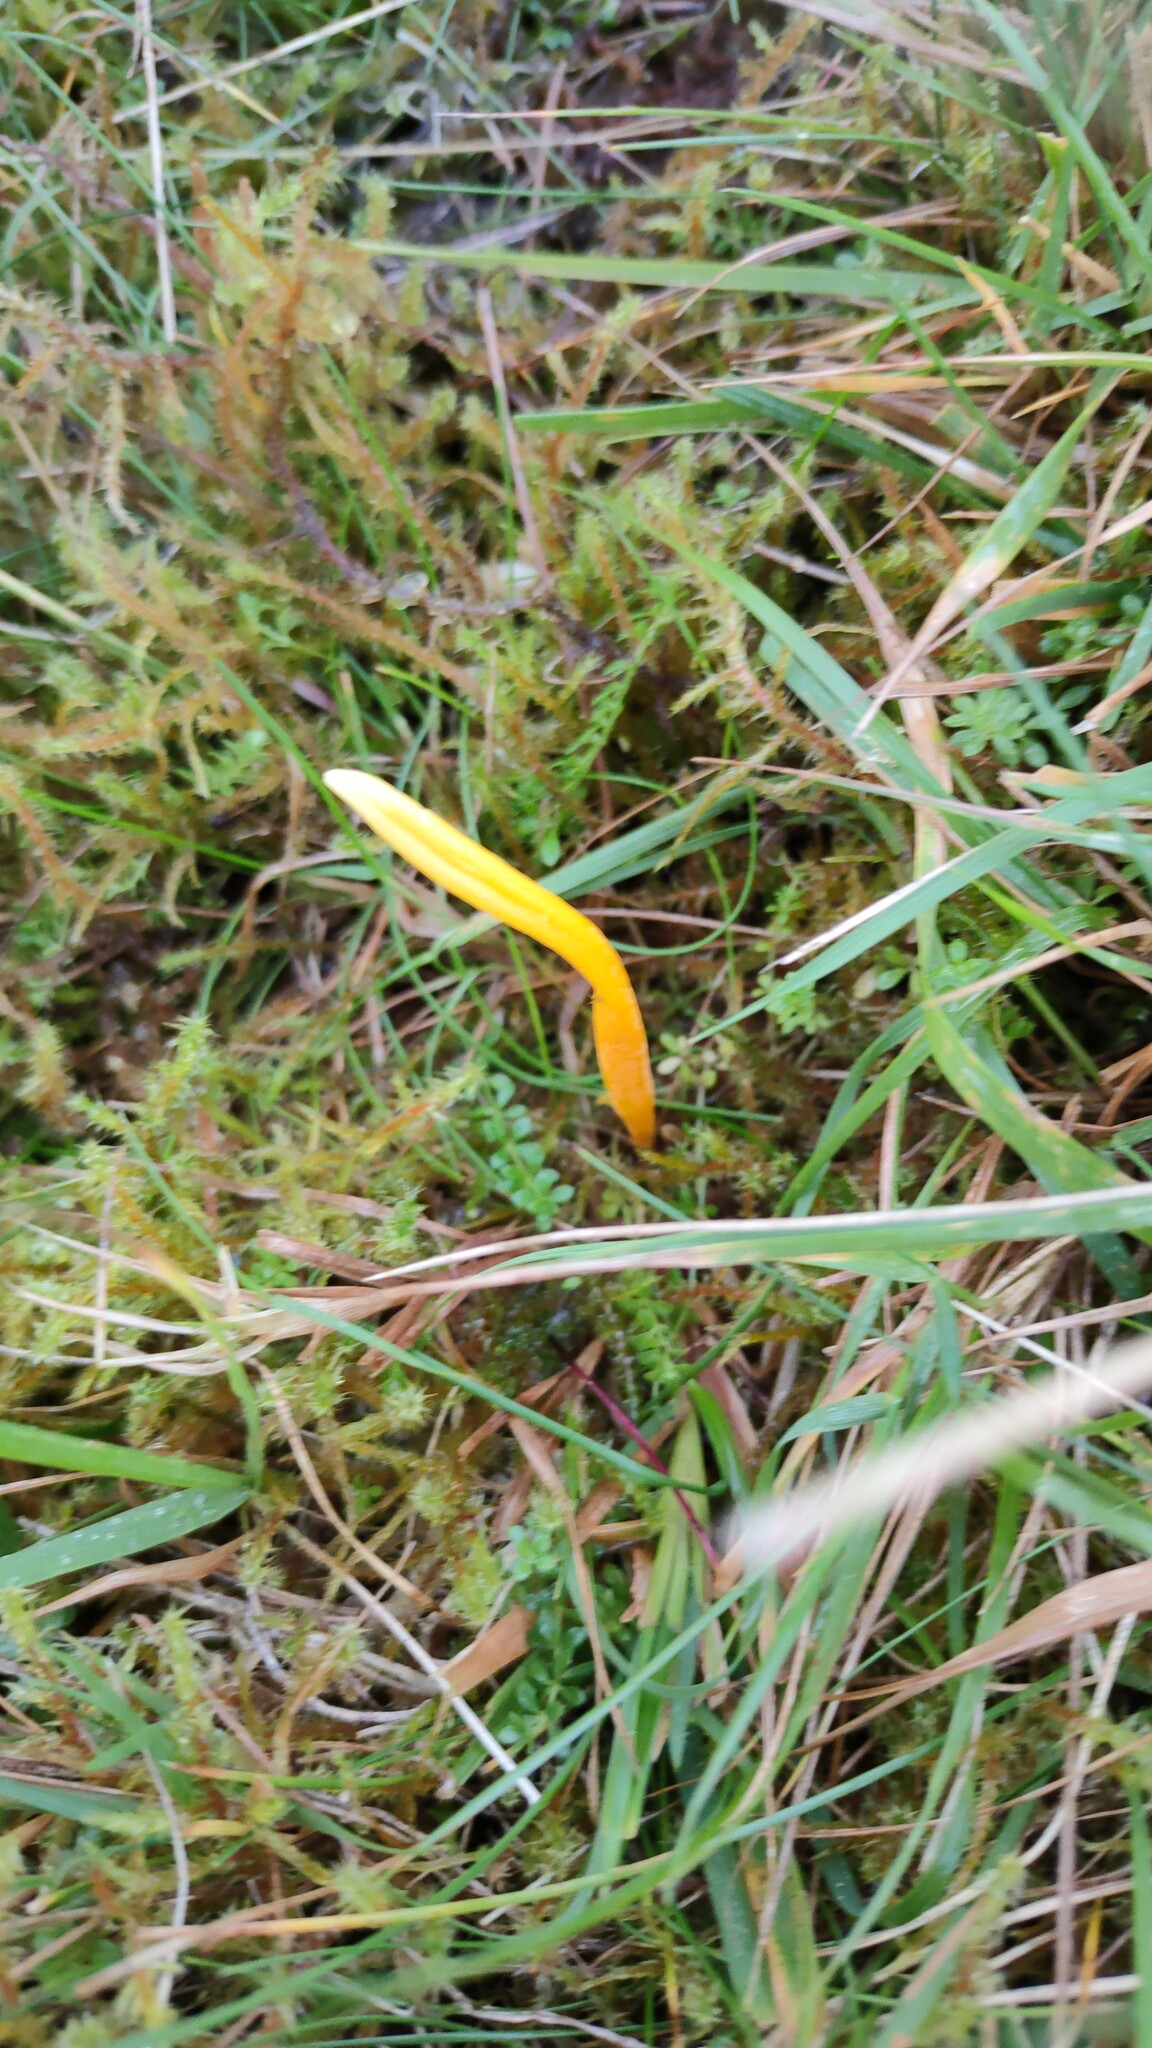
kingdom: Fungi
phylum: Basidiomycota
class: Agaricomycetes
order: Agaricales
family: Clavariaceae
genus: Clavulinopsis
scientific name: Clavulinopsis helvola
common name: Yellow club
